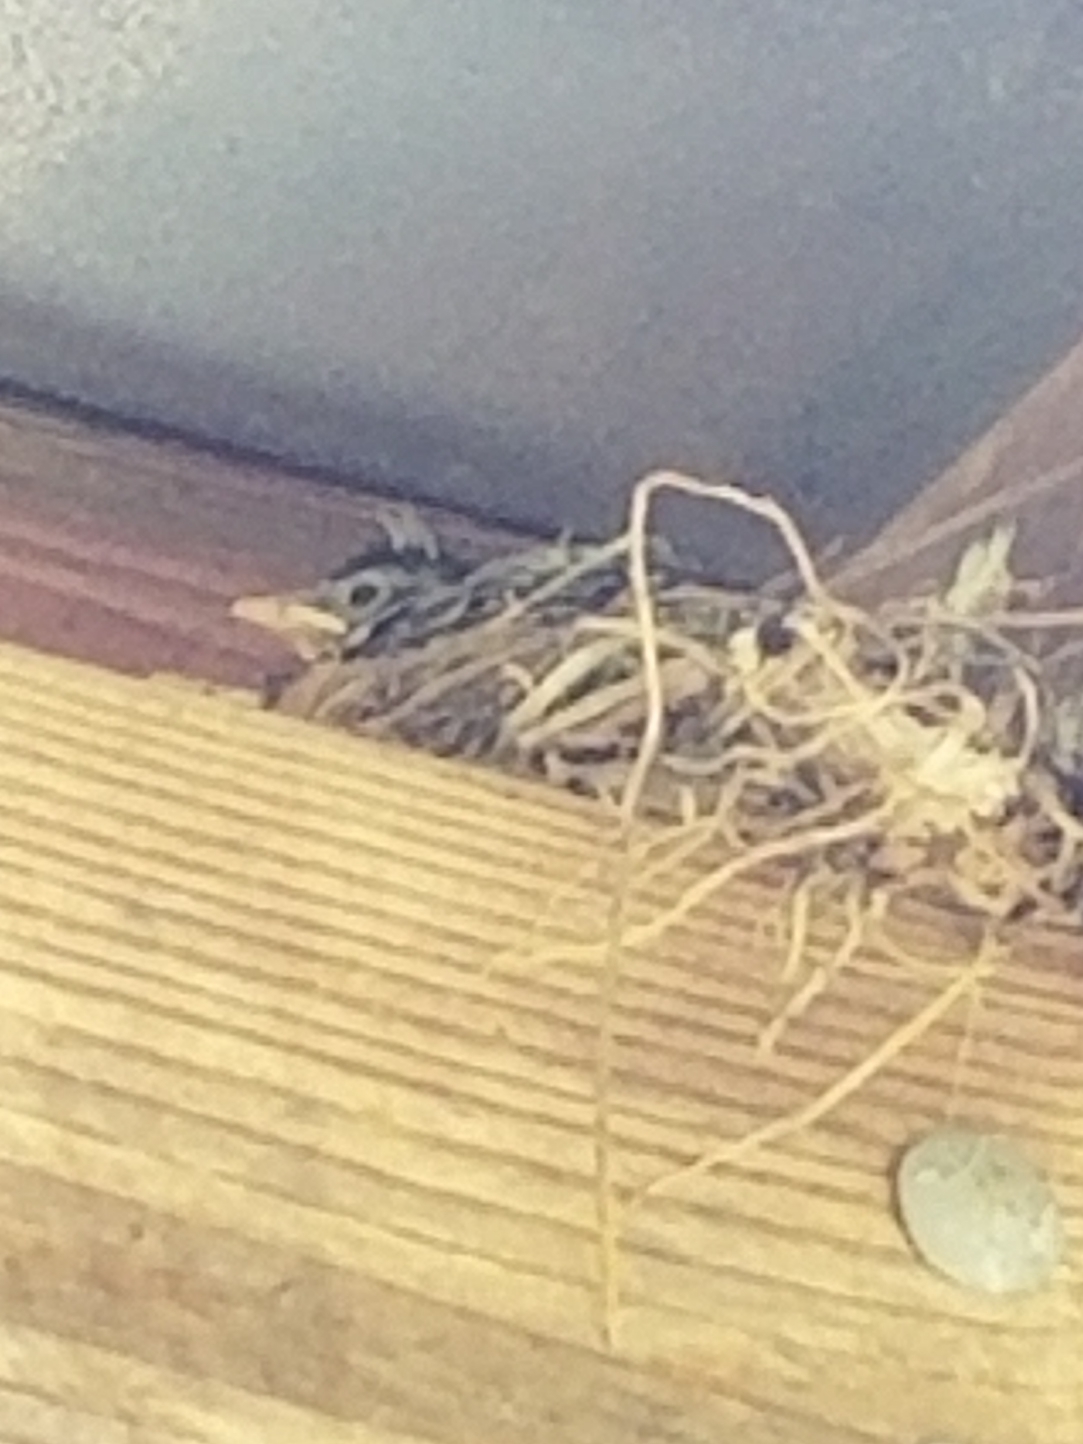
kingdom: Animalia
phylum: Chordata
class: Aves
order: Passeriformes
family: Turdidae
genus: Turdus
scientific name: Turdus migratorius
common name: American robin
